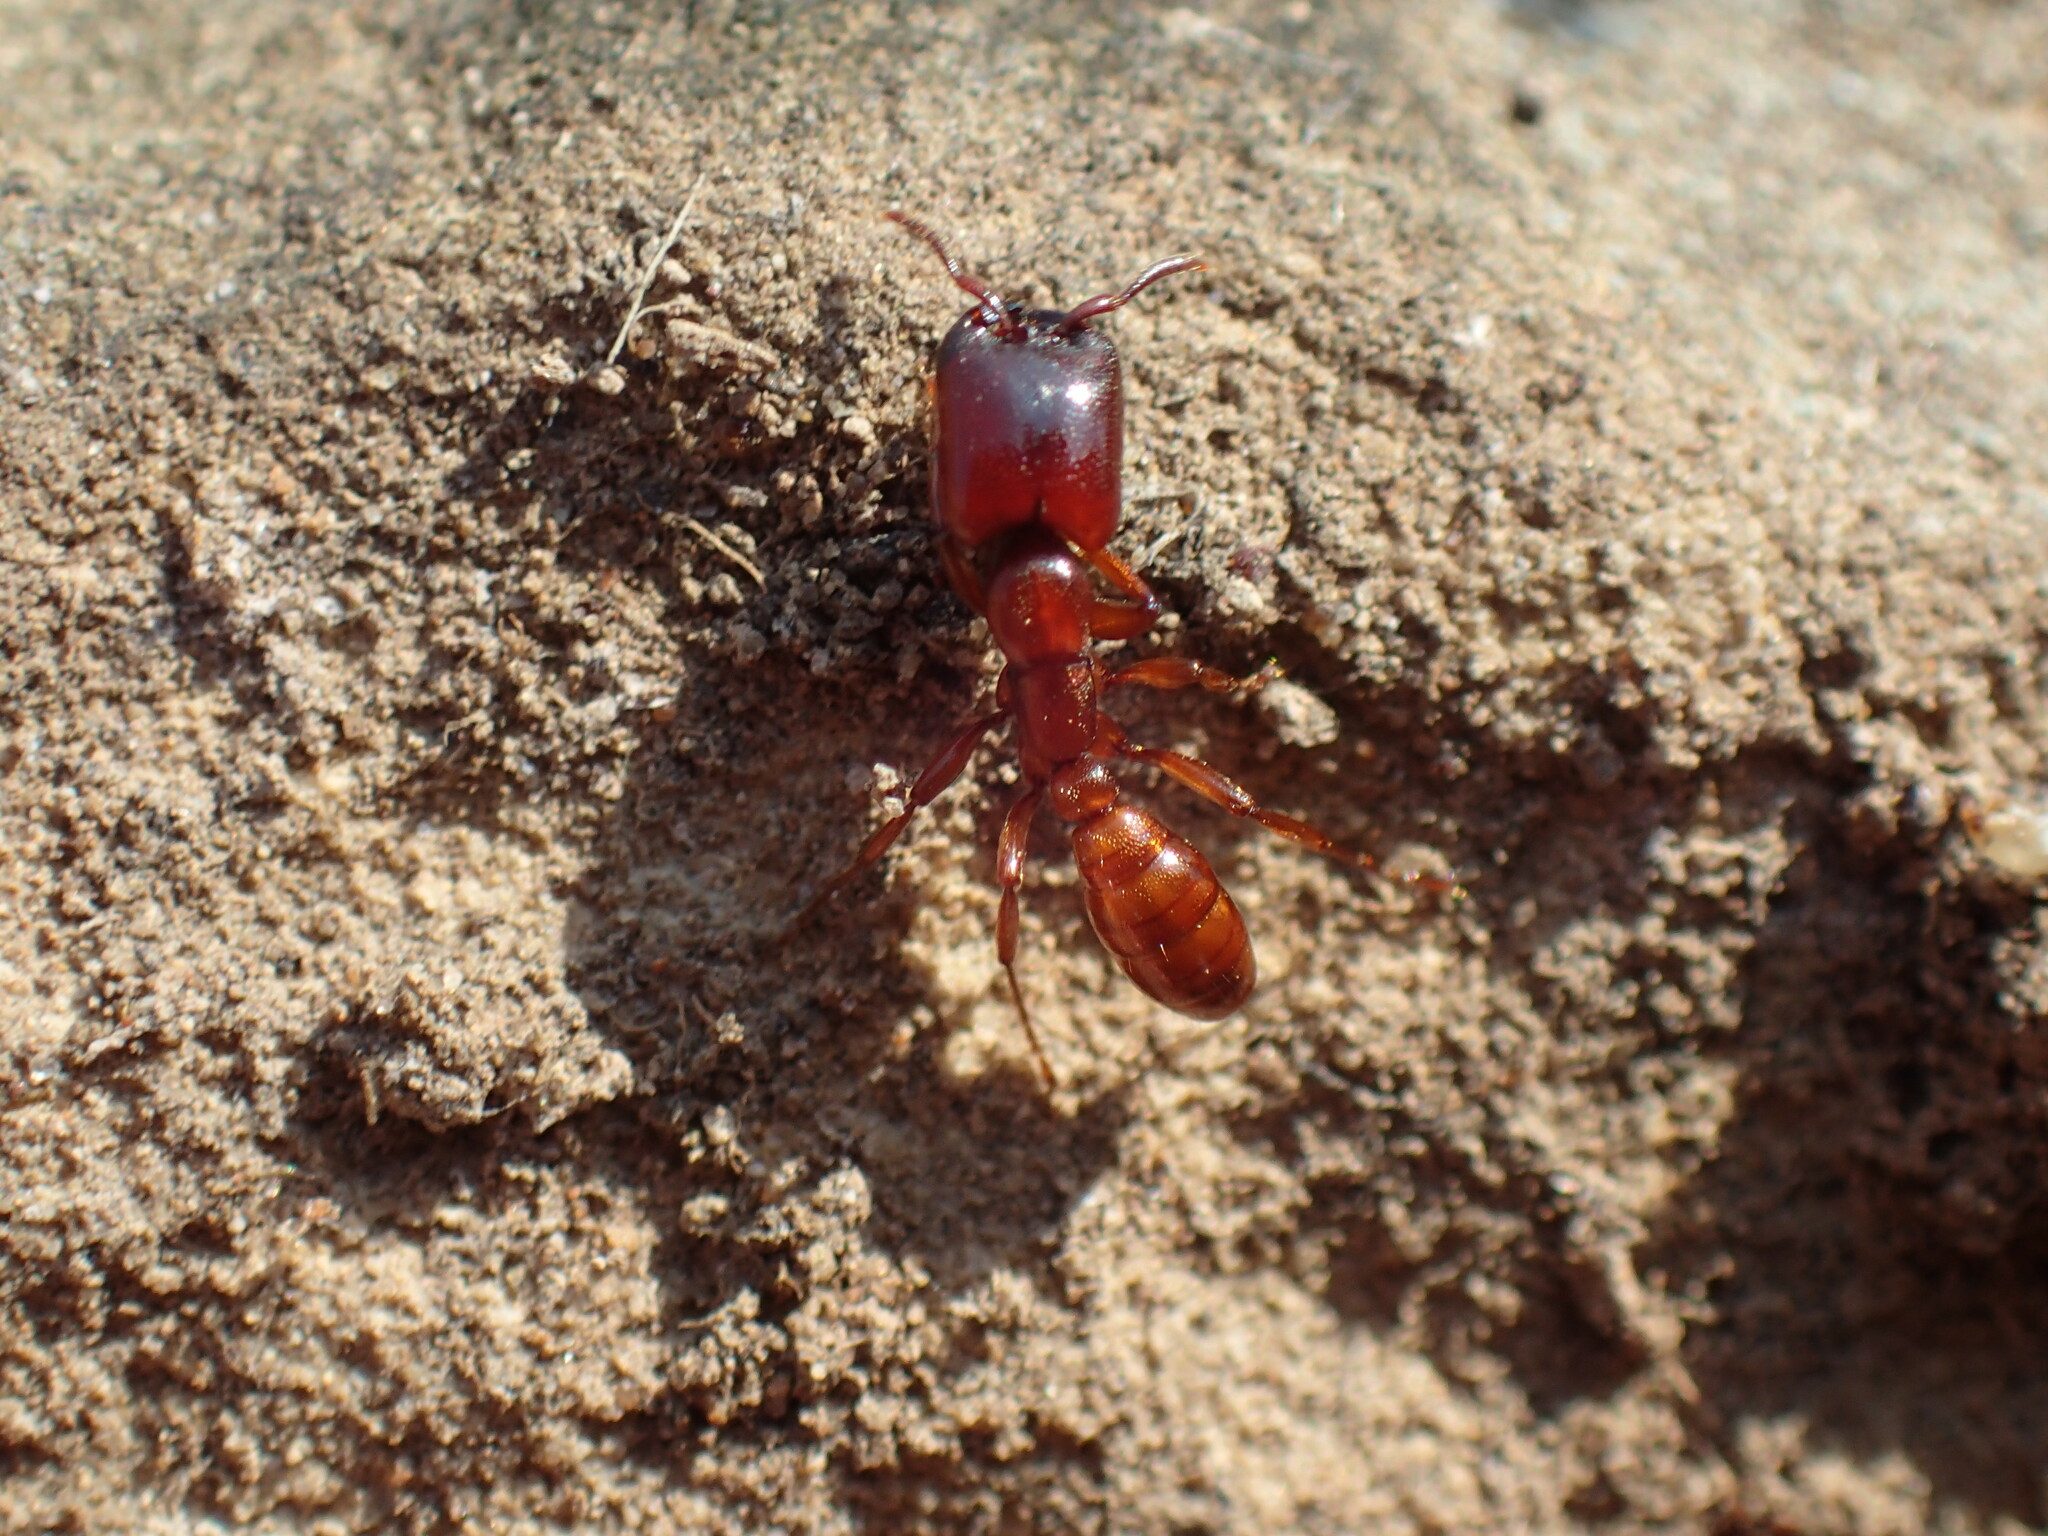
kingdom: Animalia
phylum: Arthropoda
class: Insecta
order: Hymenoptera
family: Formicidae
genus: Dorylus
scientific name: Dorylus helvolus
